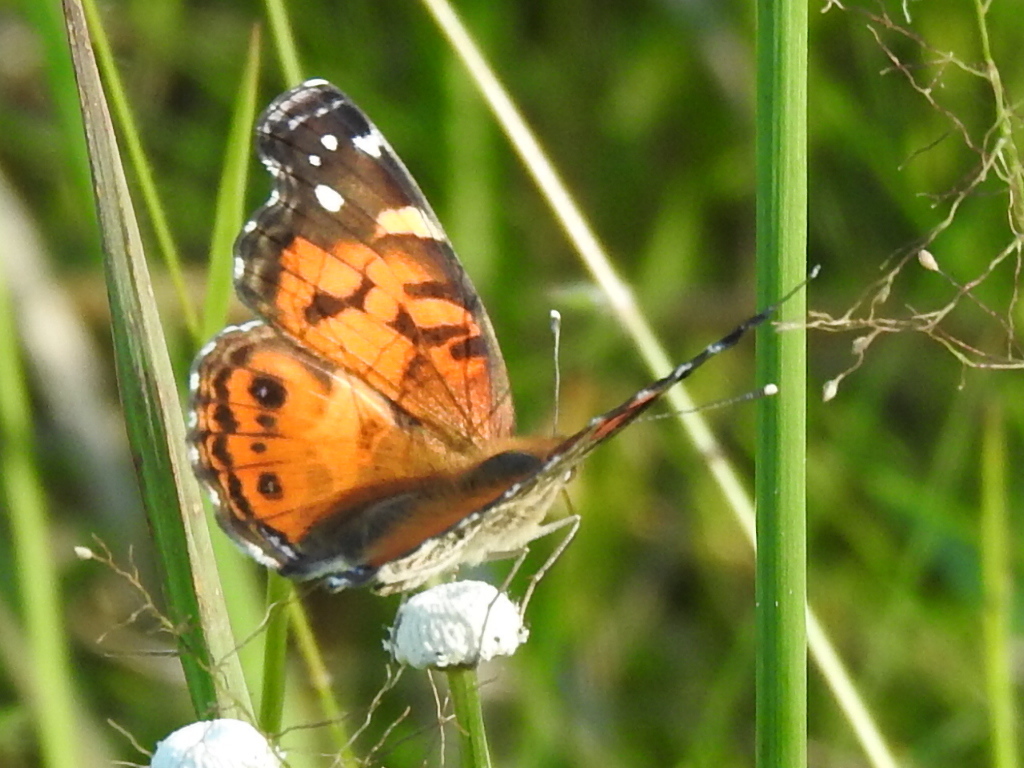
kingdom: Animalia
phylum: Arthropoda
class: Insecta
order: Lepidoptera
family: Nymphalidae
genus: Vanessa
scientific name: Vanessa virginiensis
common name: American lady
